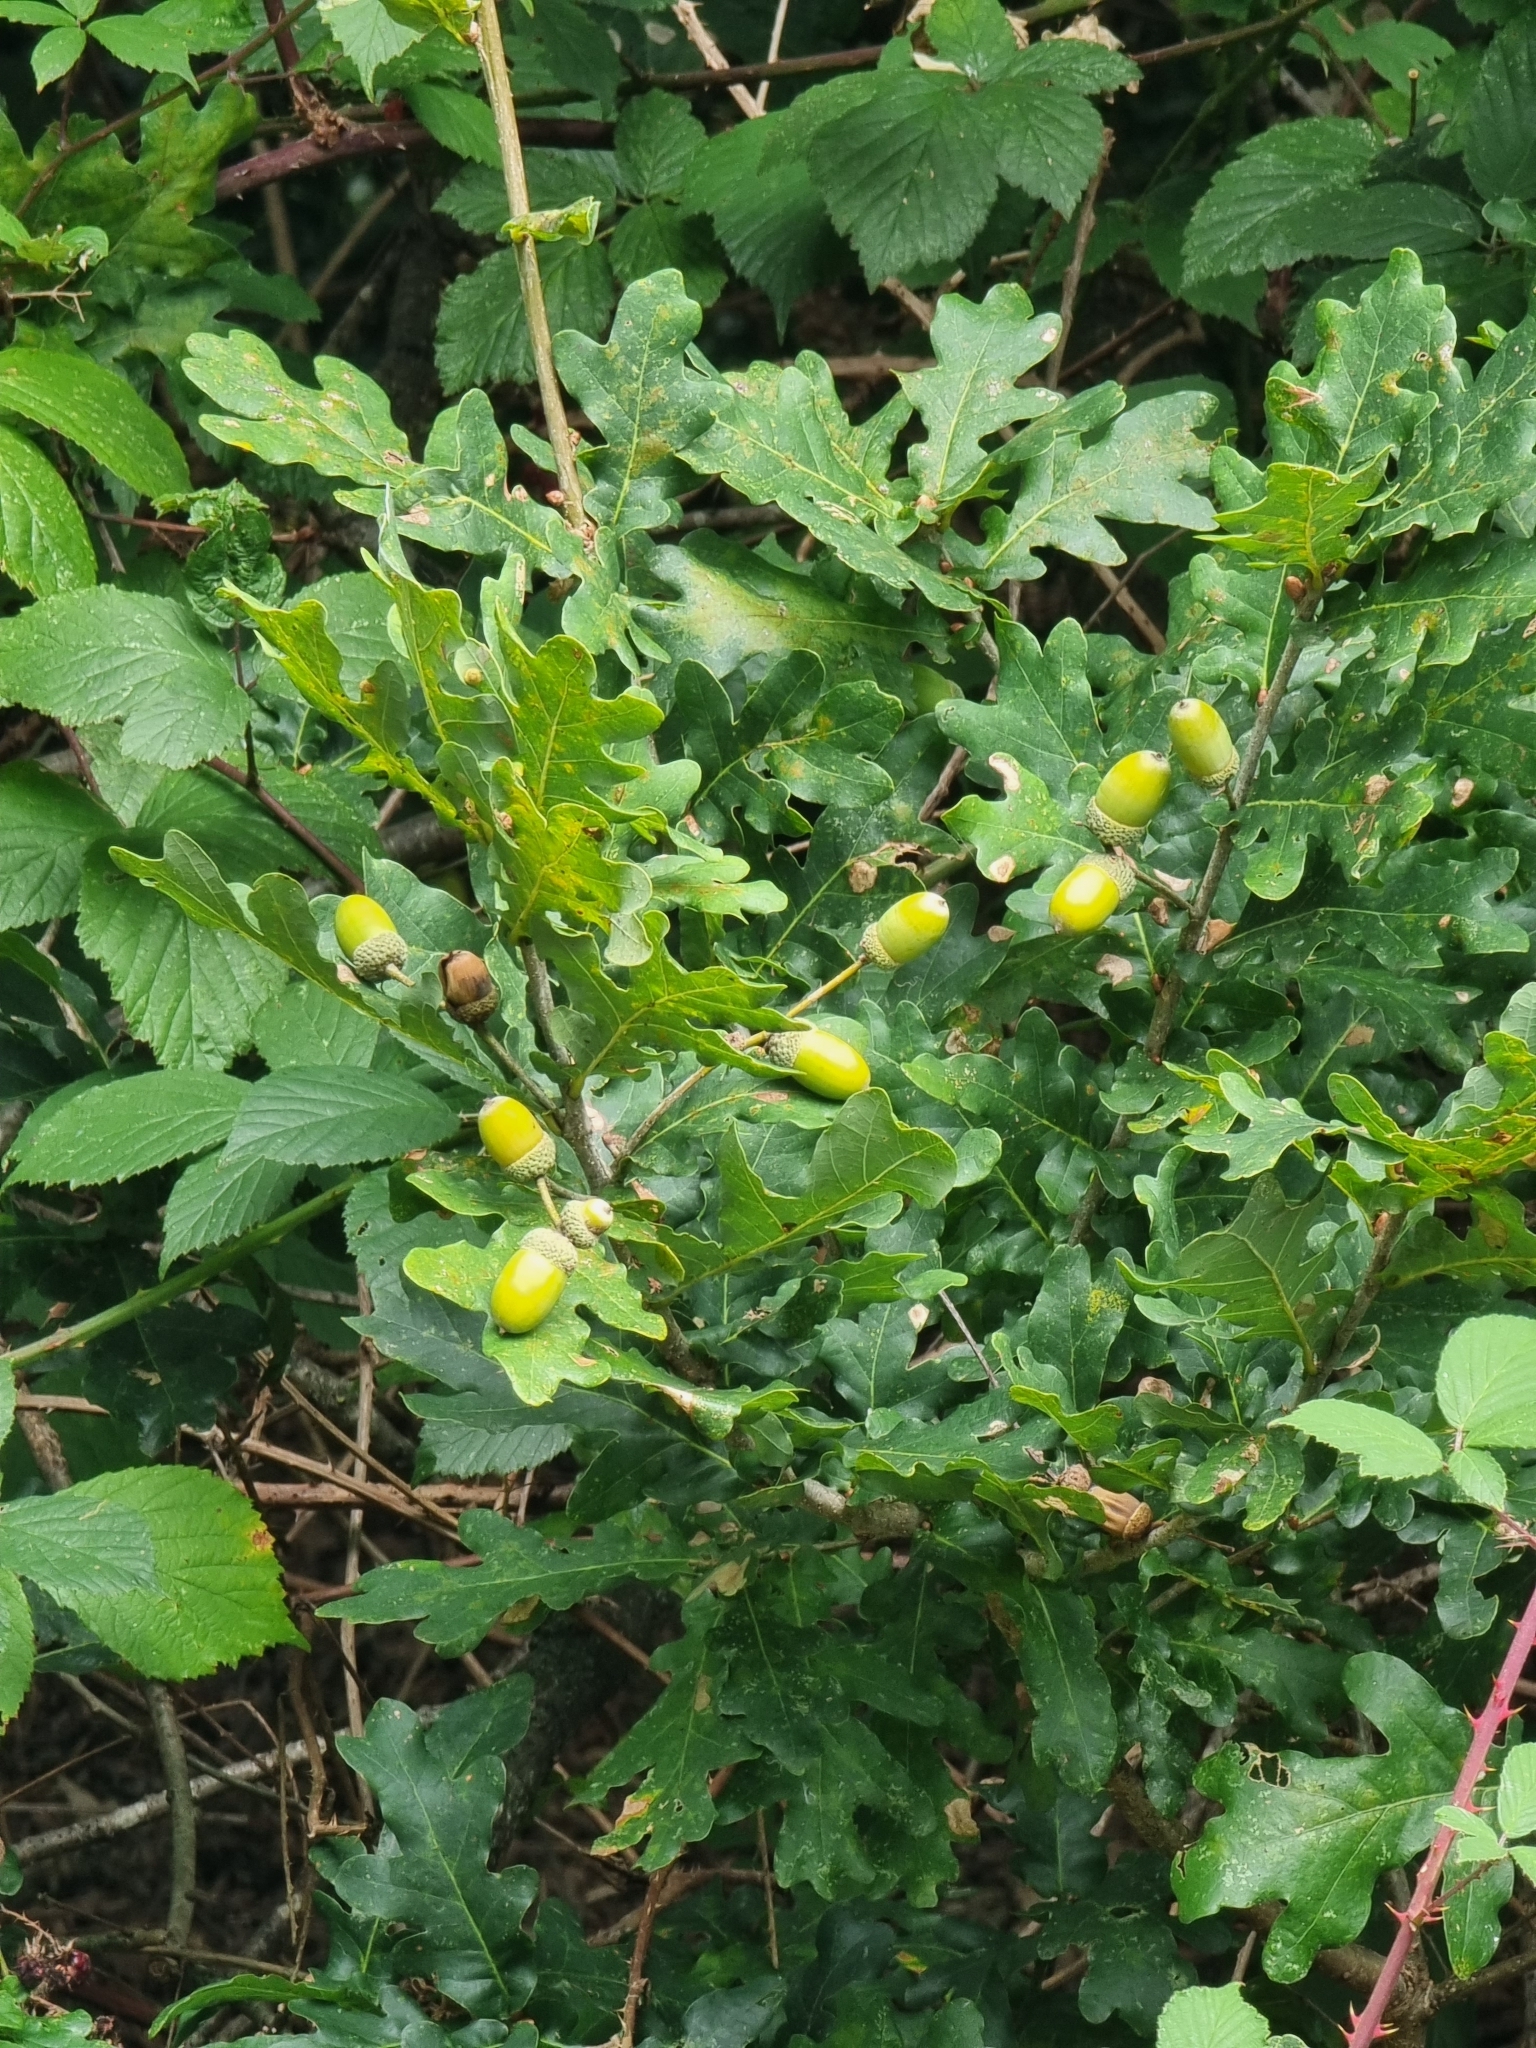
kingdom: Plantae
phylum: Tracheophyta
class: Magnoliopsida
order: Fagales
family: Fagaceae
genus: Quercus
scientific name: Quercus robur
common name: Pedunculate oak
